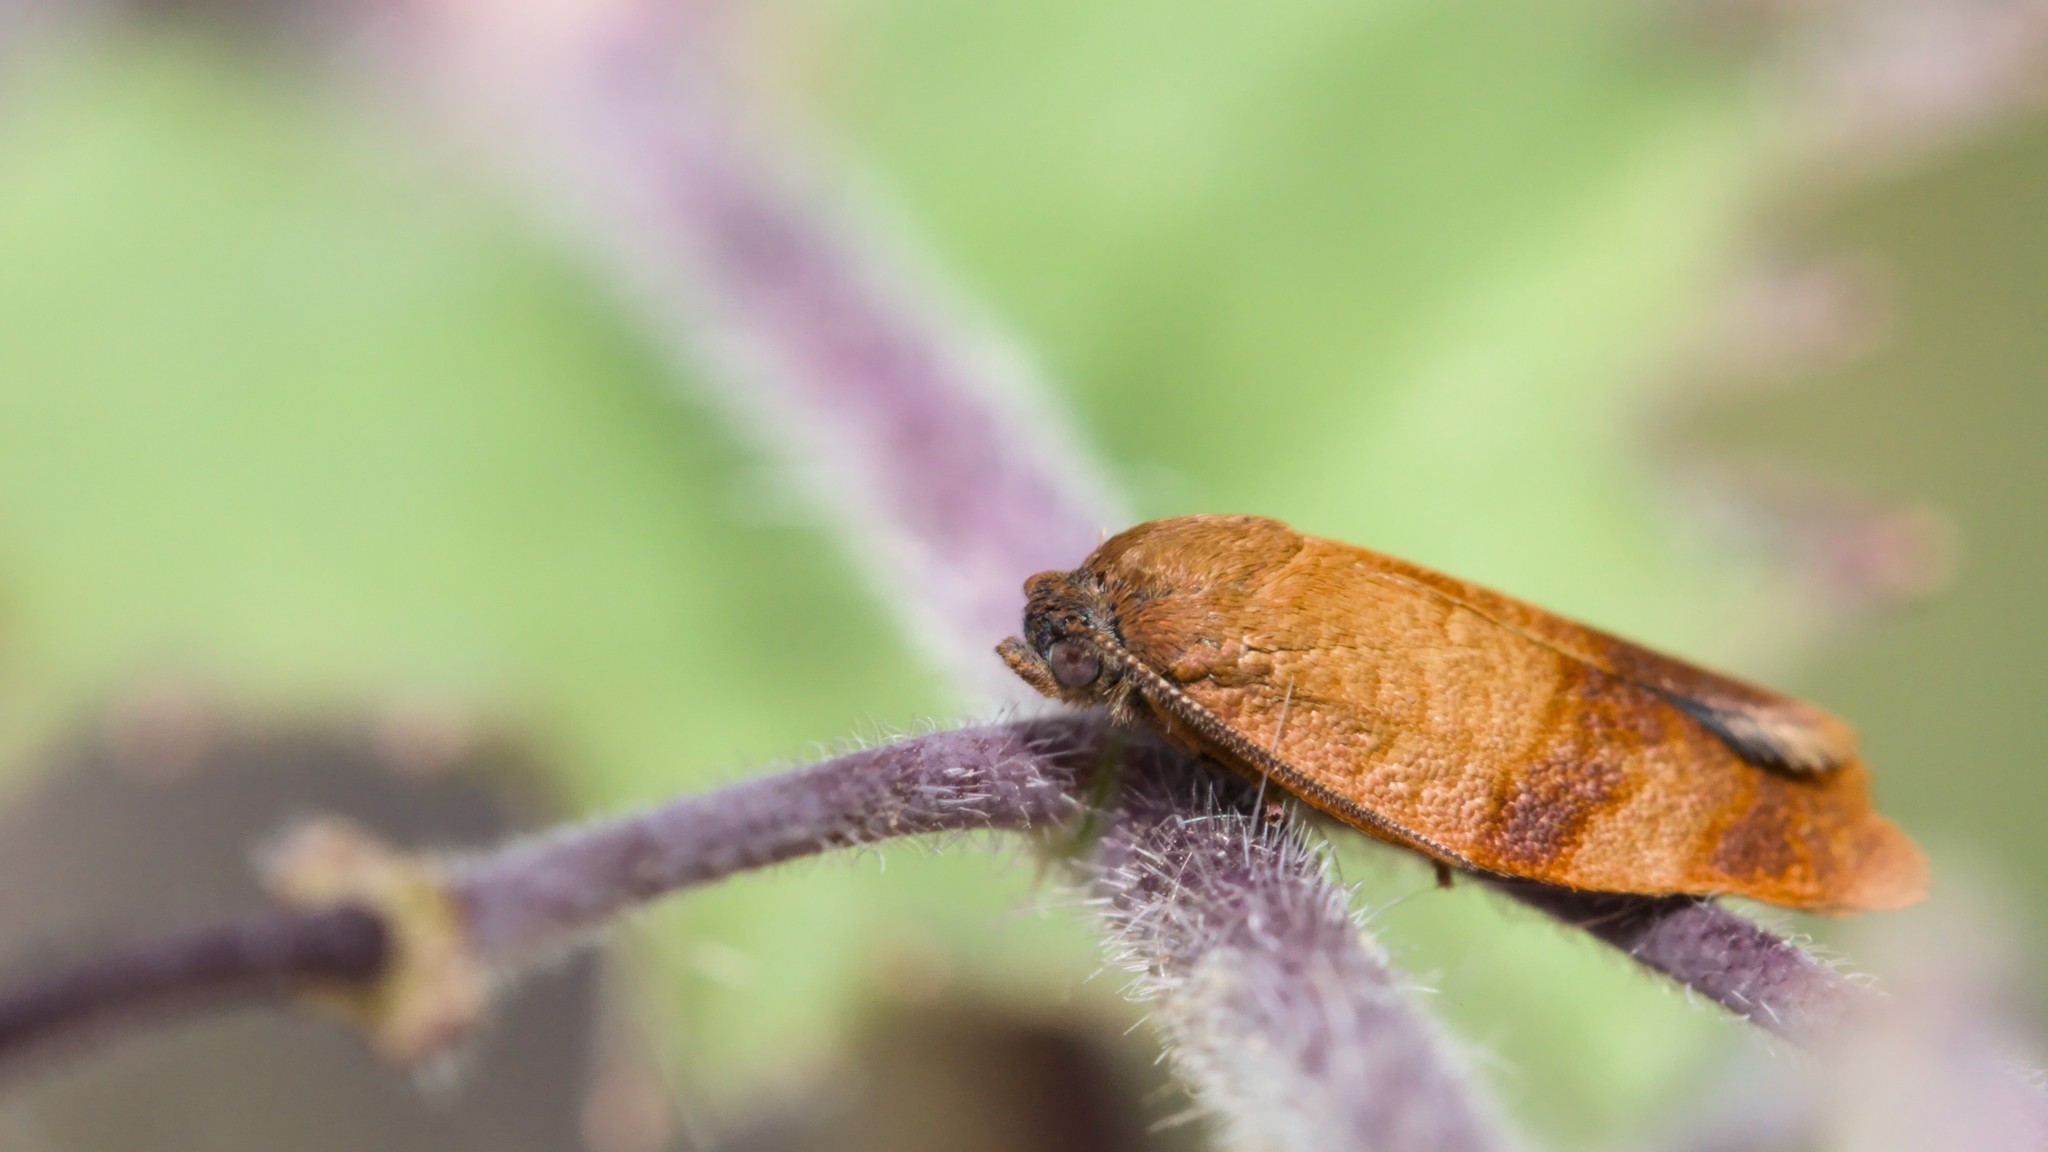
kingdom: Animalia
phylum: Arthropoda
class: Insecta
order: Lepidoptera
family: Tortricidae
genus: Cacoecimorpha
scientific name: Cacoecimorpha pronubana
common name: Carnation tortrix
